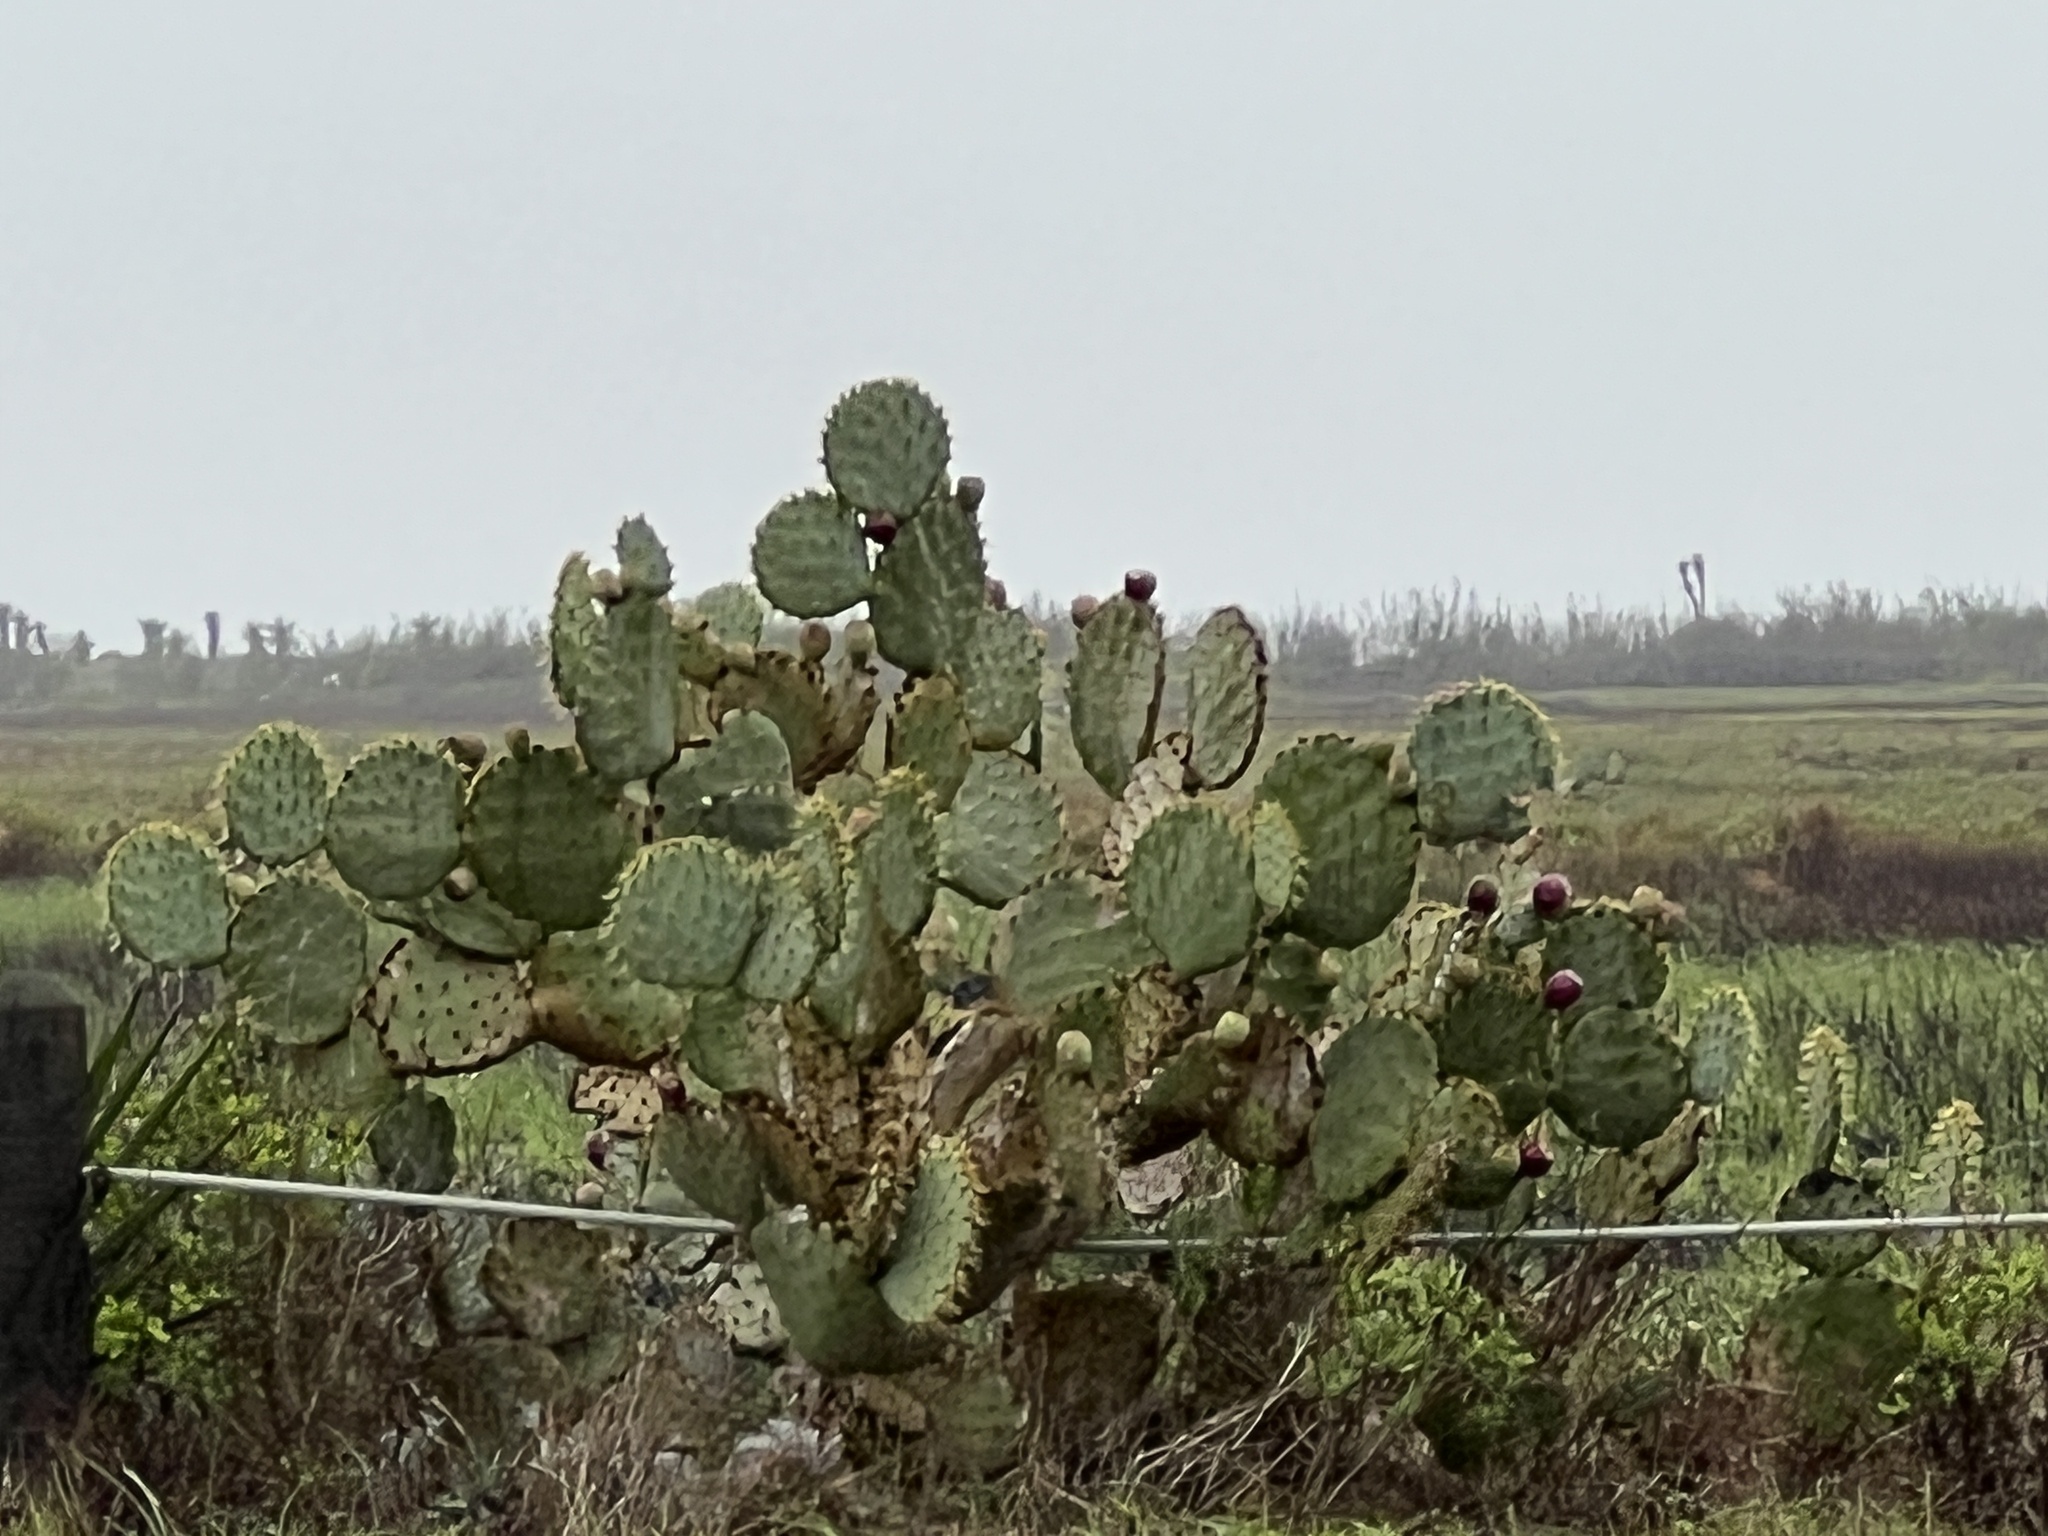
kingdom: Plantae
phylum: Tracheophyta
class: Magnoliopsida
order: Caryophyllales
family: Cactaceae
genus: Opuntia
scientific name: Opuntia alta
